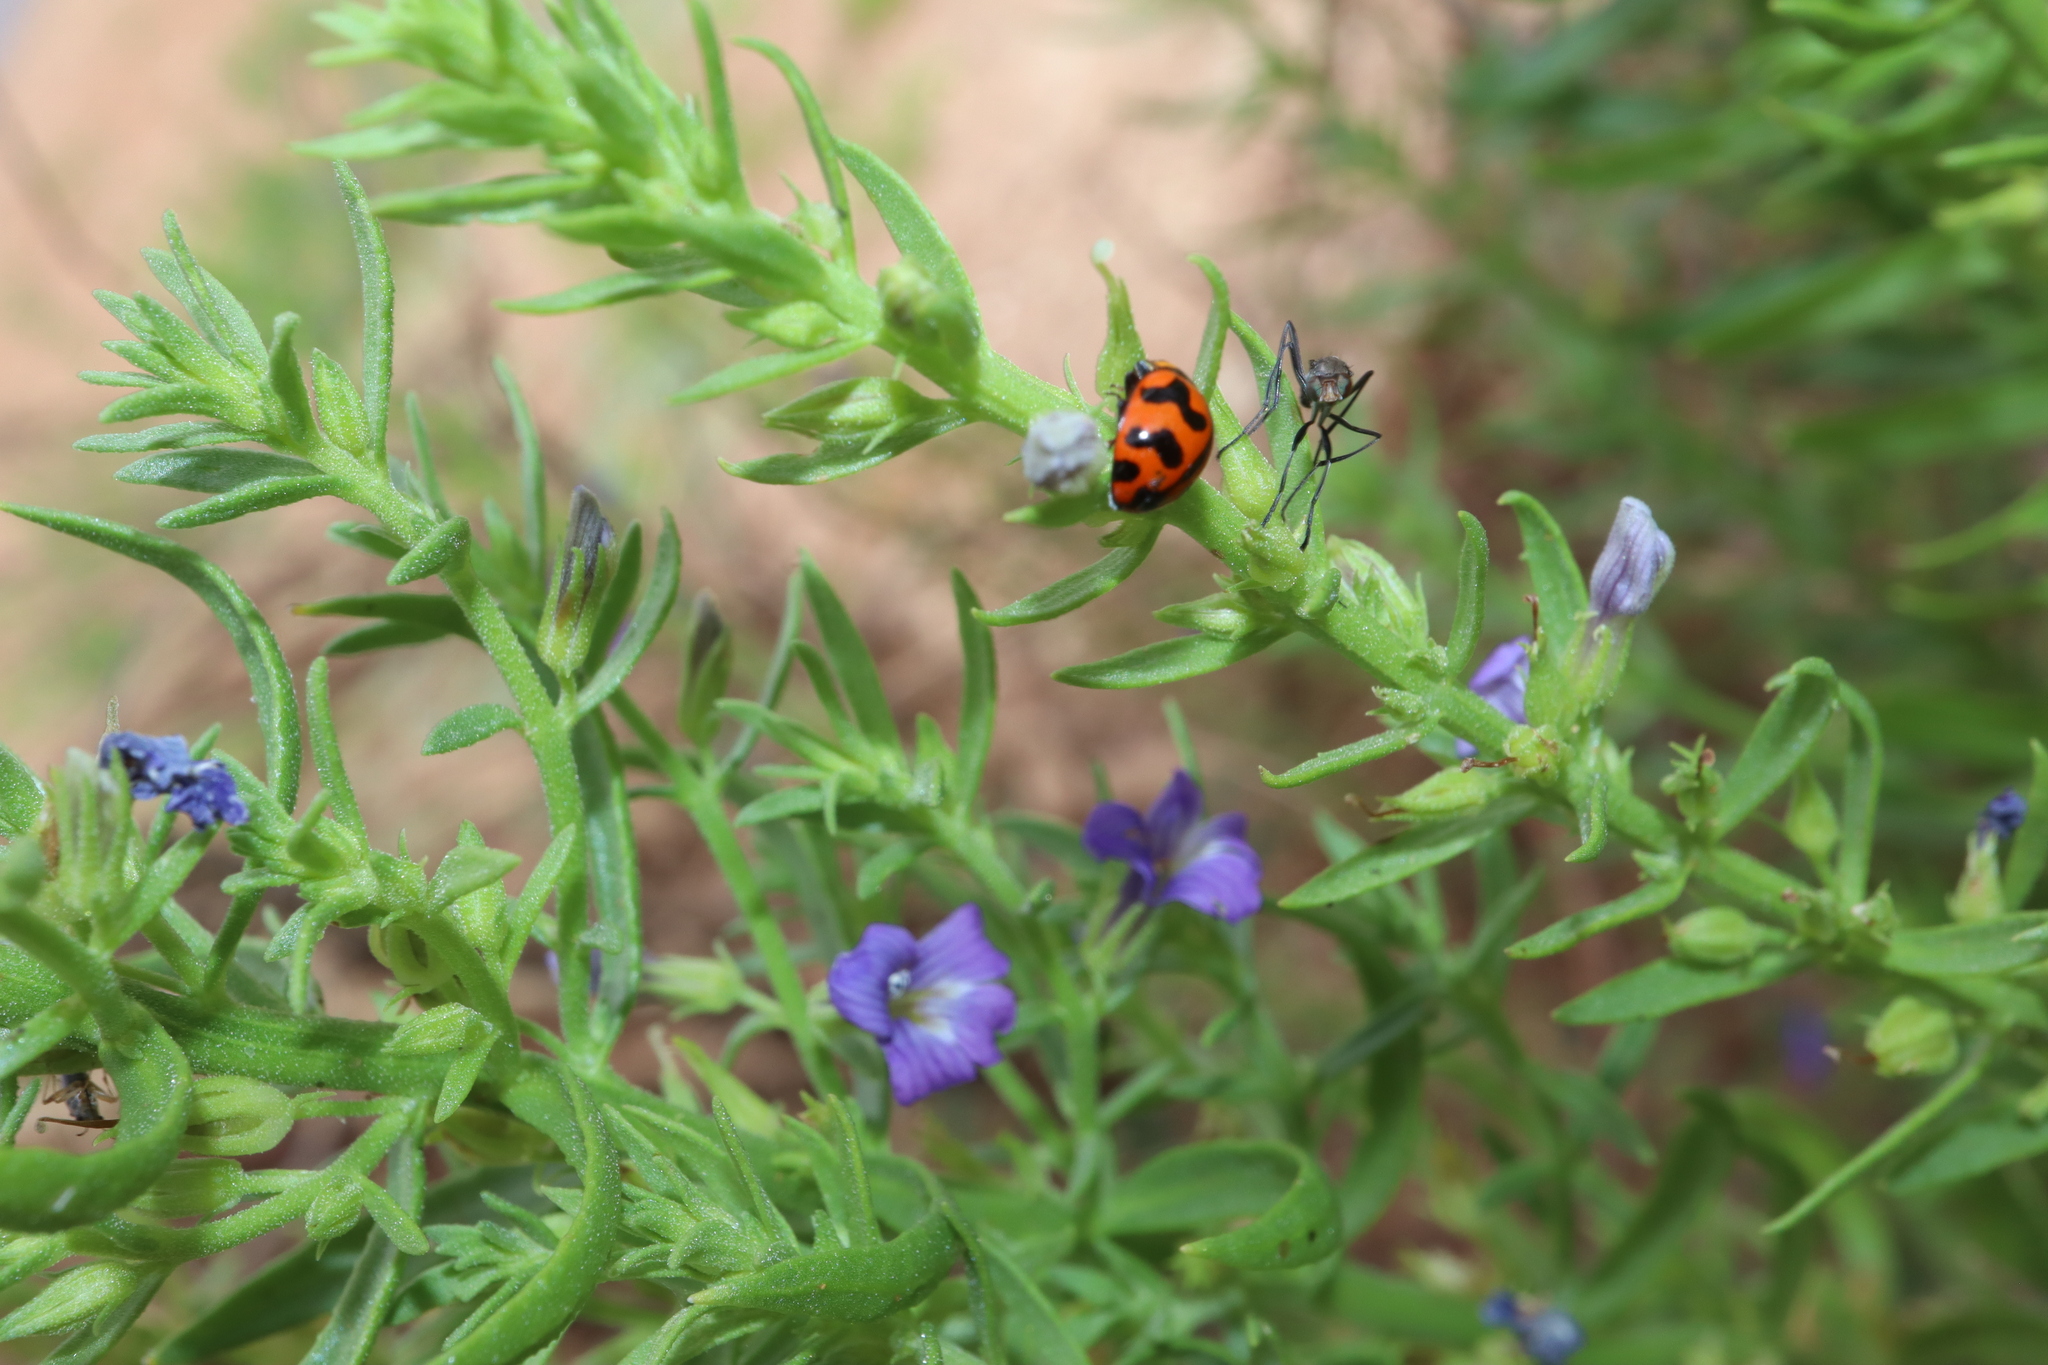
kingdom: Animalia
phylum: Arthropoda
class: Insecta
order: Coleoptera
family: Coccinellidae
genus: Coccinella
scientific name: Coccinella transversalis
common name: Transverse lady beetle
